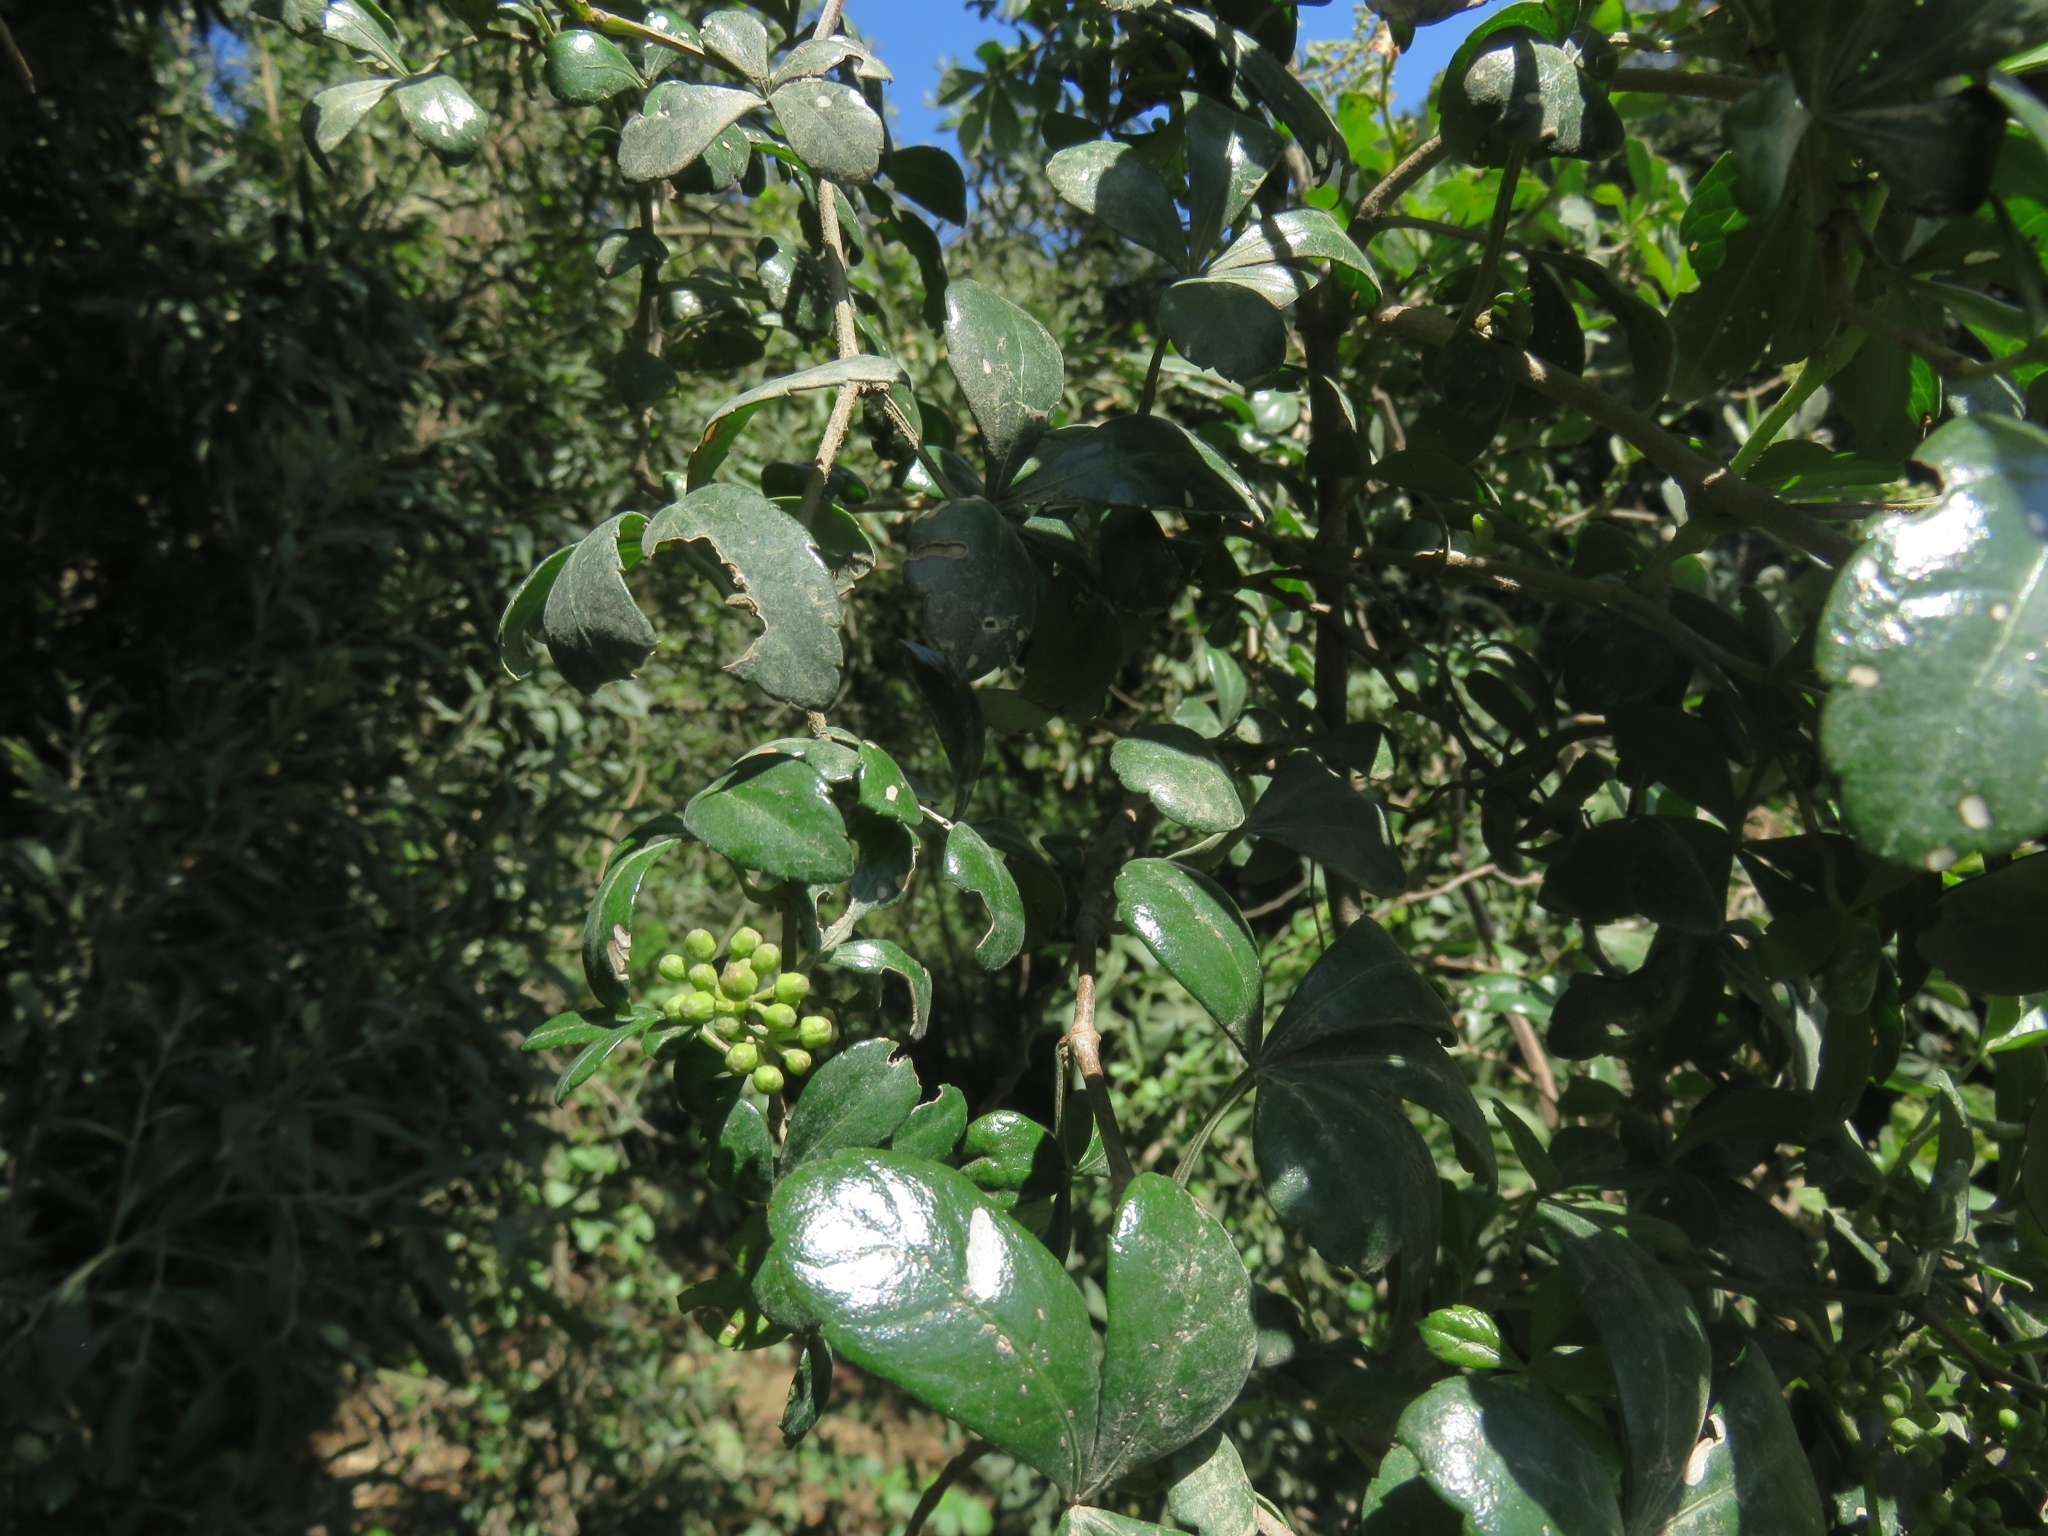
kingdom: Plantae
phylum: Tracheophyta
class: Magnoliopsida
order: Vitales
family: Vitaceae
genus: Clematicissus
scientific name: Clematicissus striata
